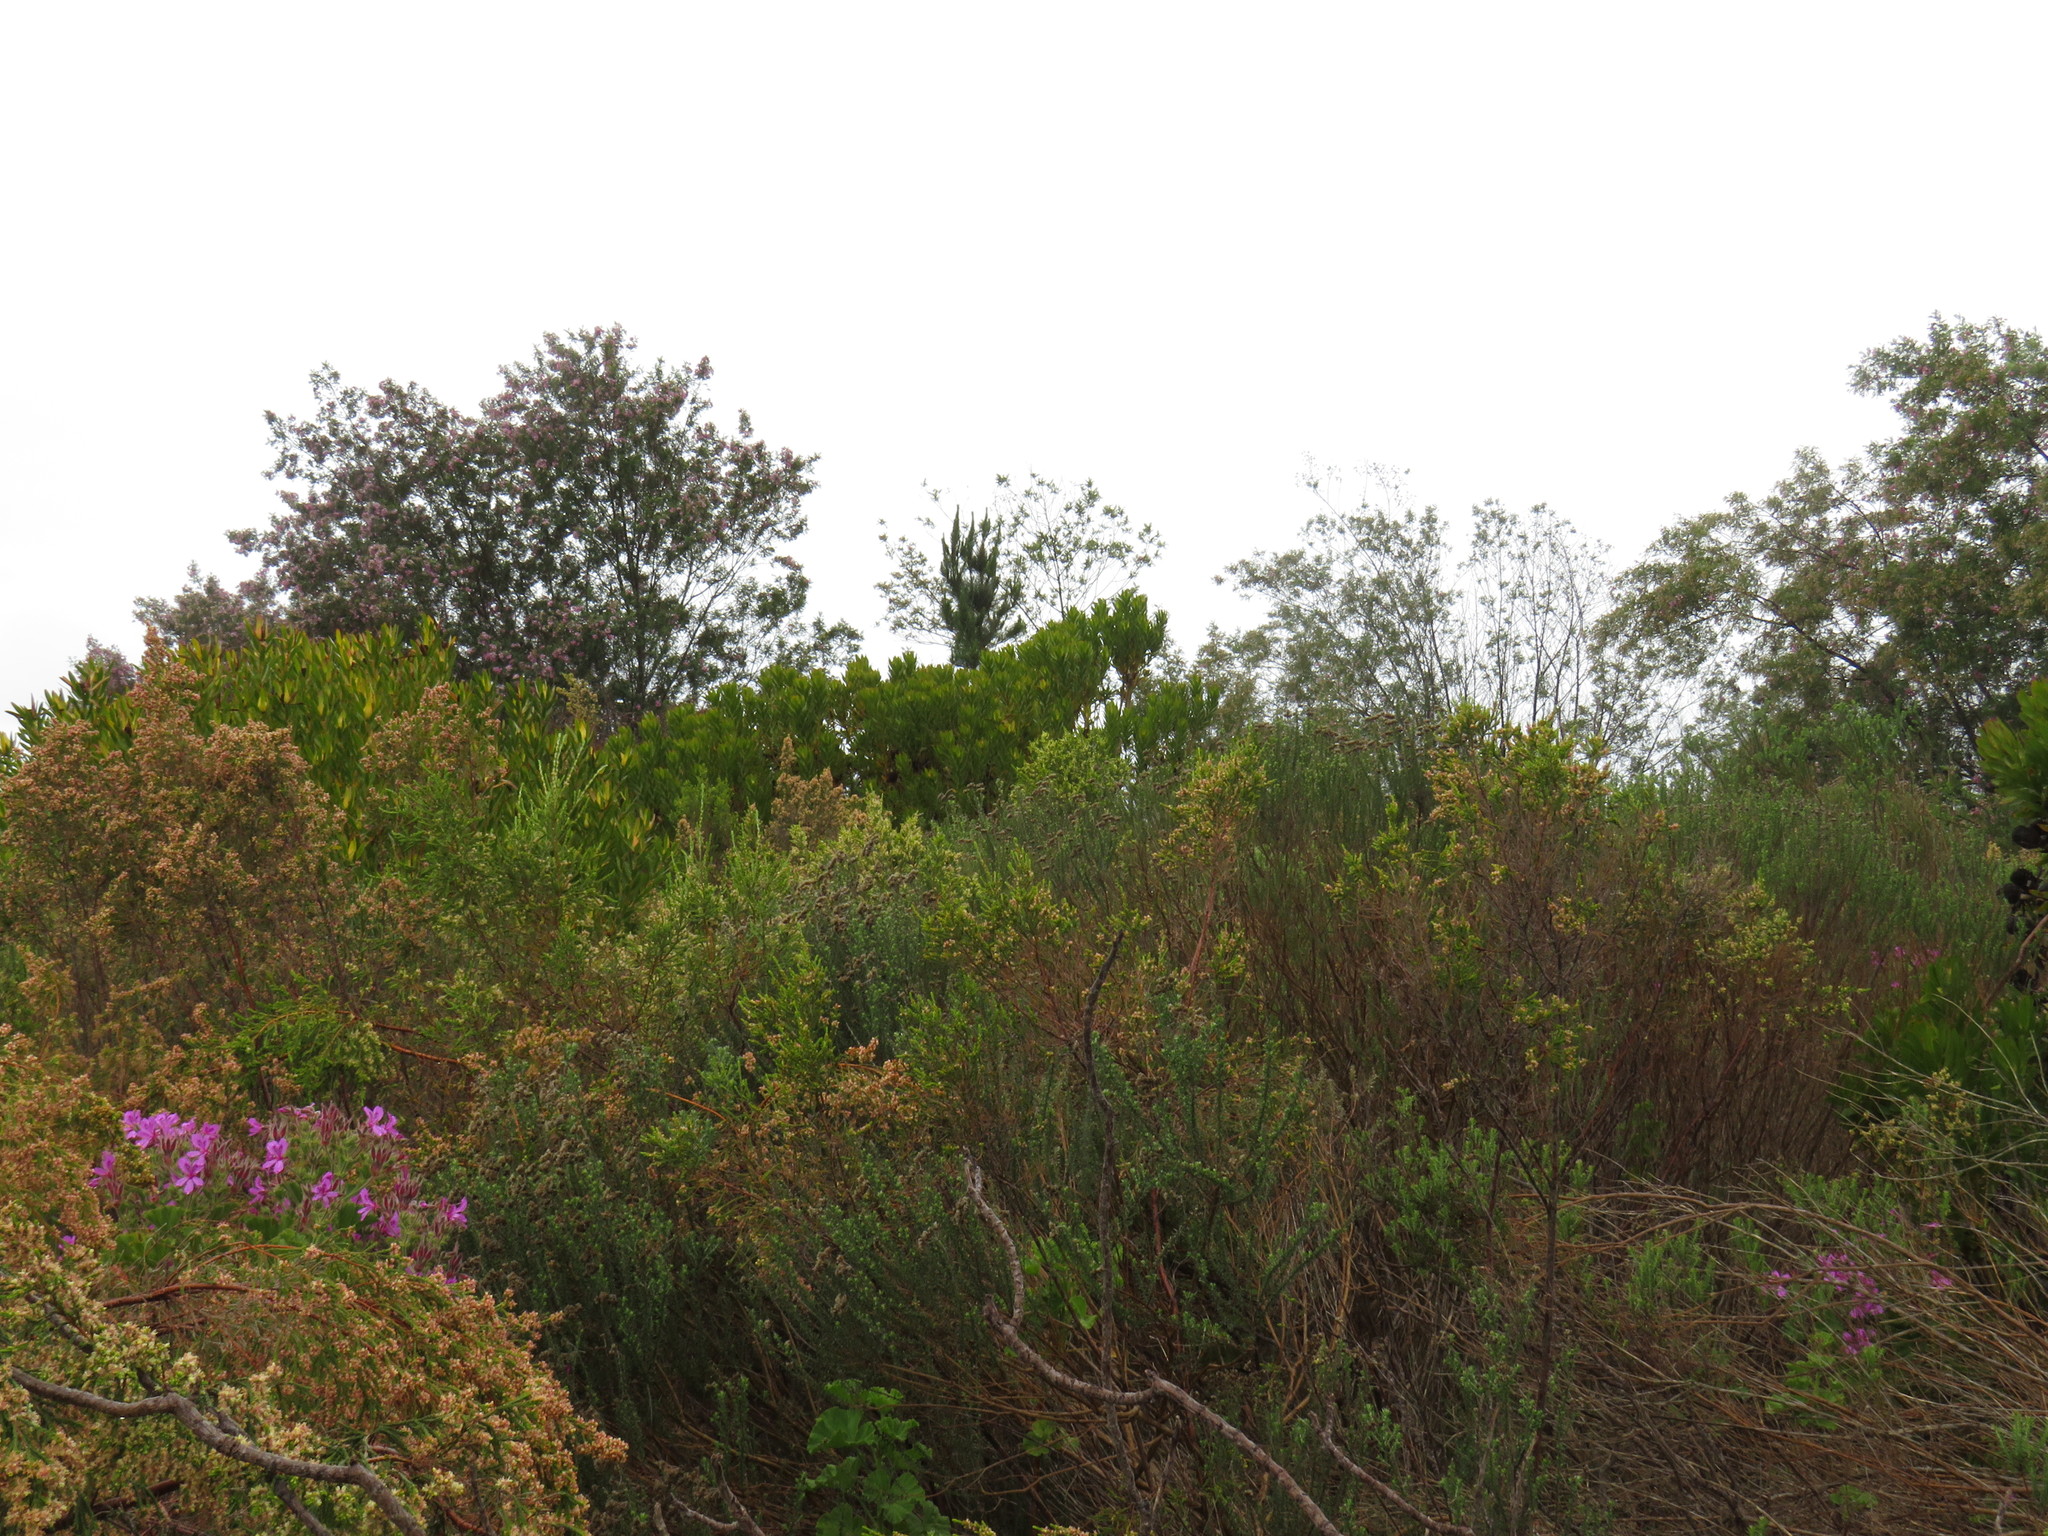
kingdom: Plantae
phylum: Tracheophyta
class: Pinopsida
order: Pinales
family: Pinaceae
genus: Pinus
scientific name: Pinus radiata
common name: Monterey pine
